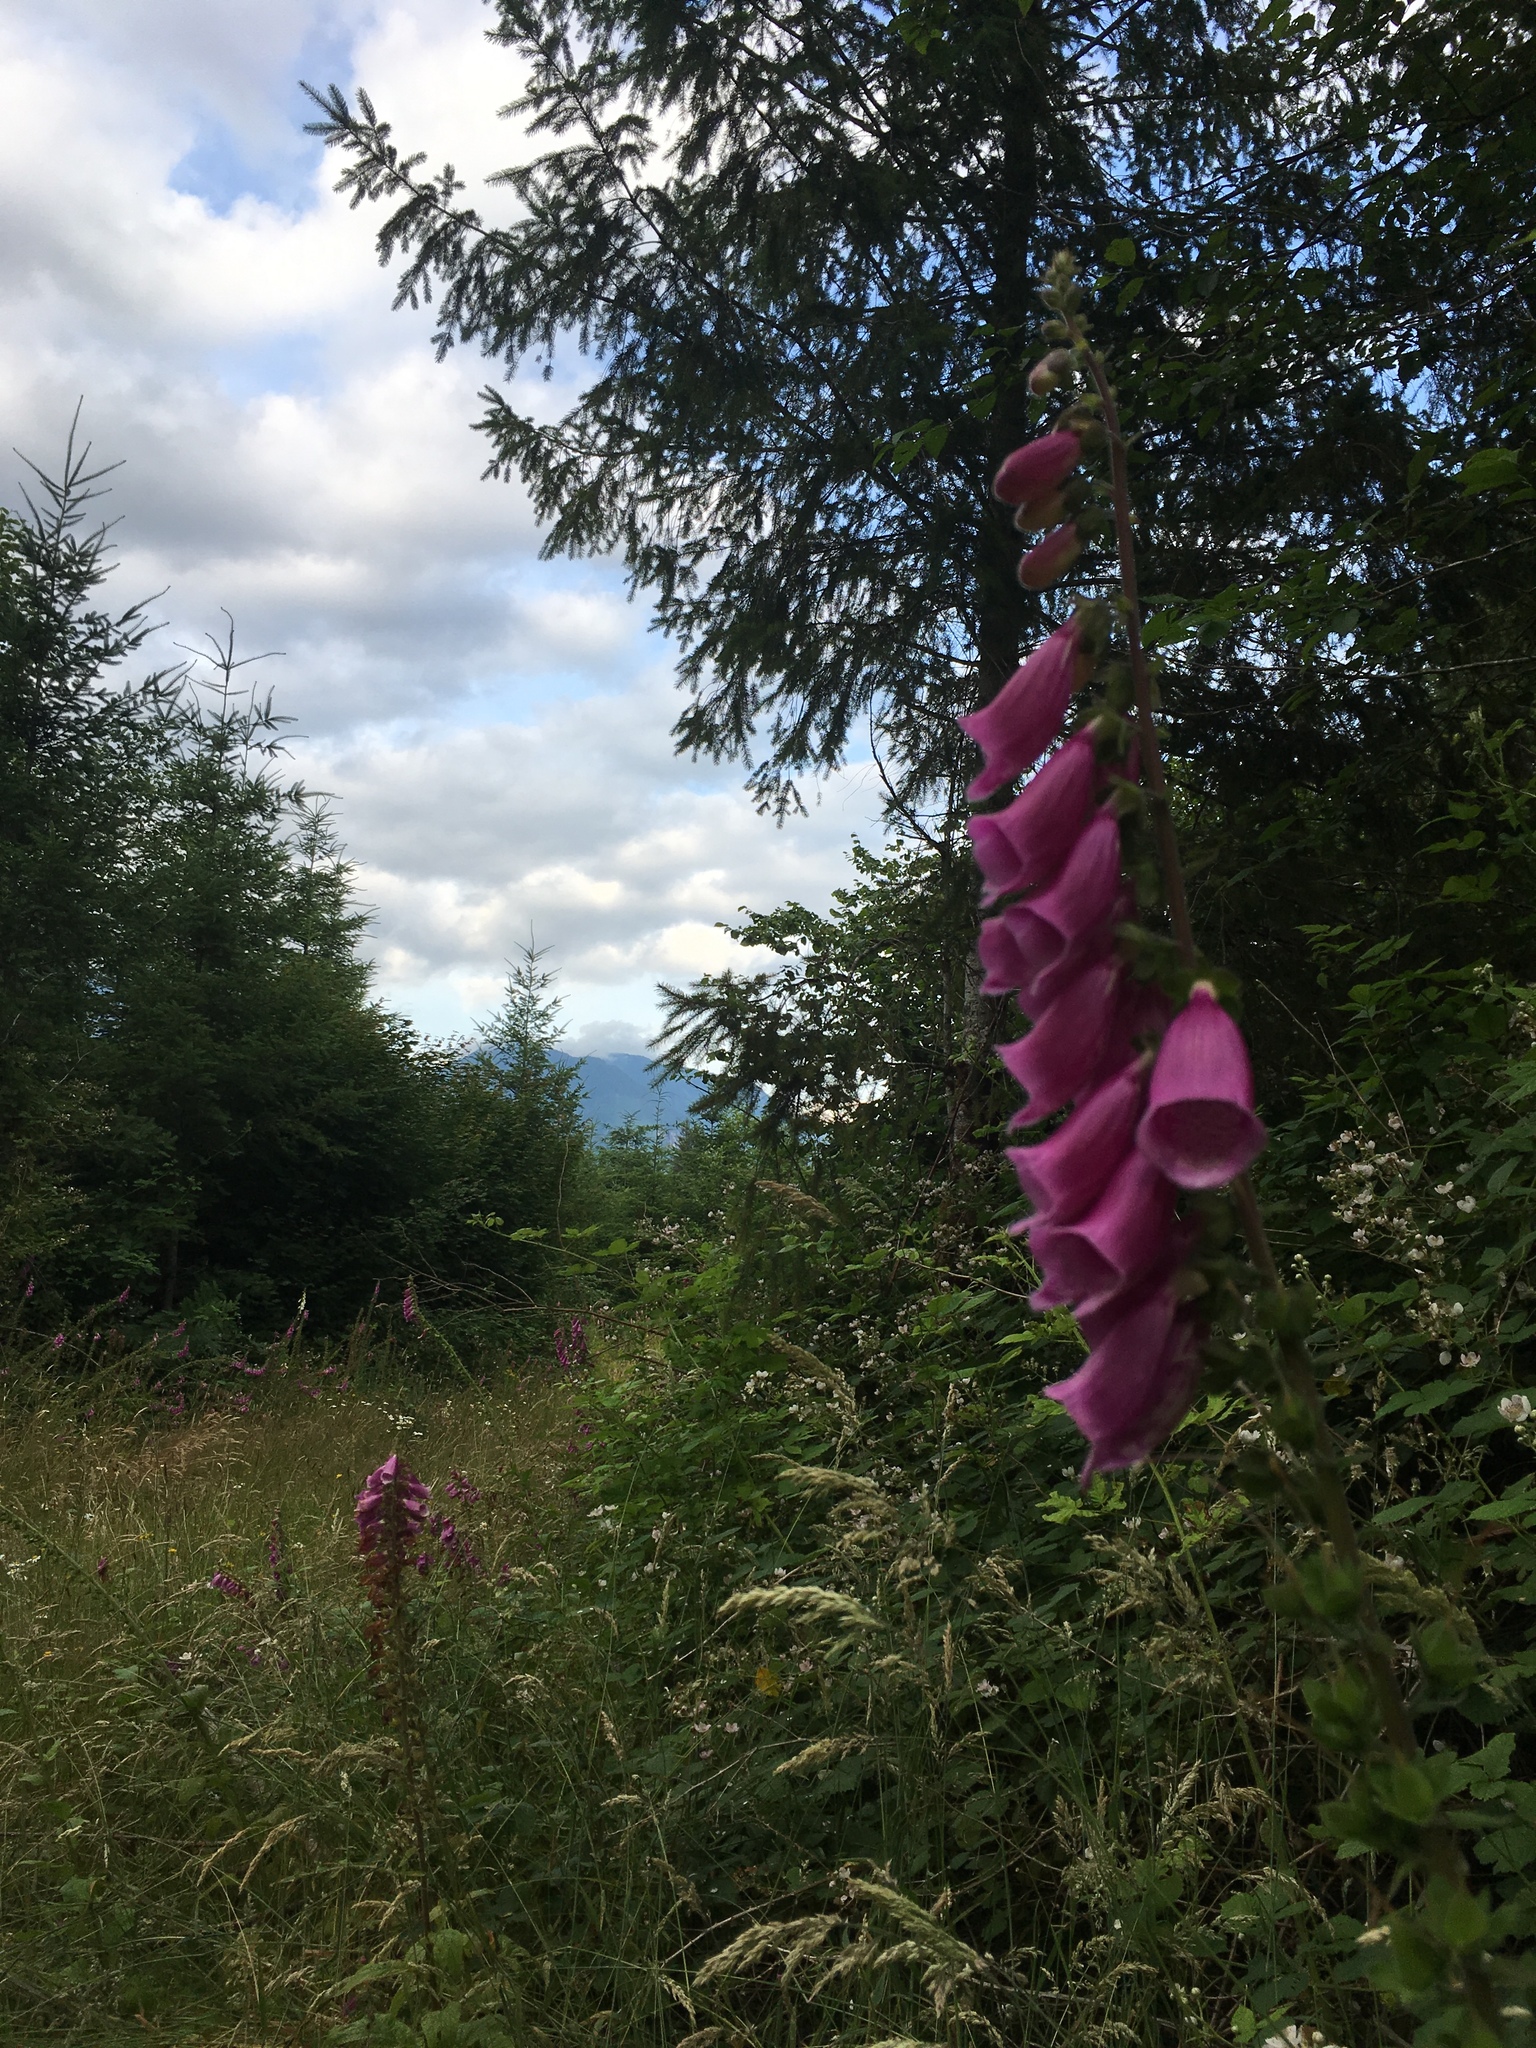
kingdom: Plantae
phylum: Tracheophyta
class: Magnoliopsida
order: Lamiales
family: Plantaginaceae
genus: Digitalis
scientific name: Digitalis purpurea
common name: Foxglove
